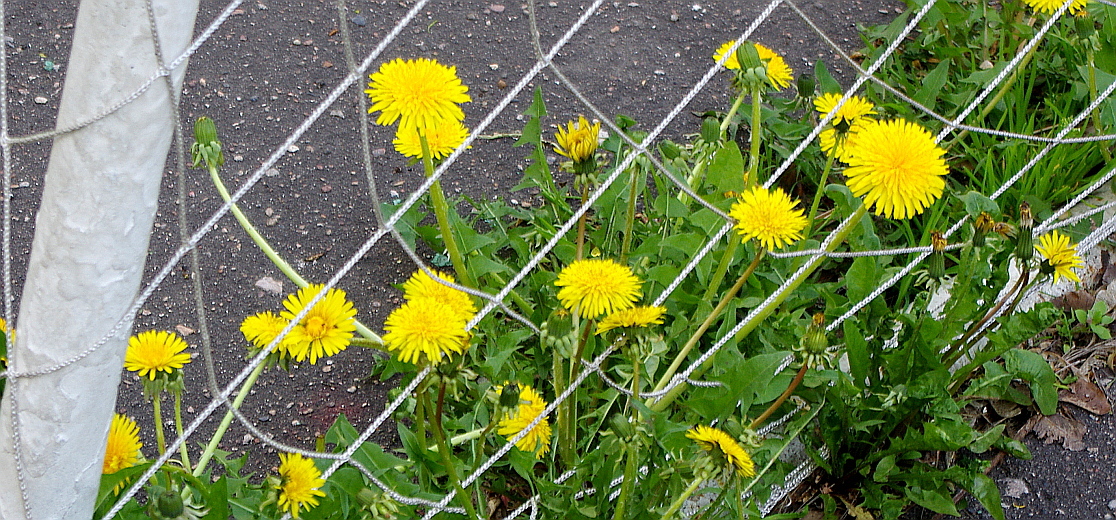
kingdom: Plantae
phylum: Tracheophyta
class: Magnoliopsida
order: Asterales
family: Asteraceae
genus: Taraxacum
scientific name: Taraxacum officinale
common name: Common dandelion
